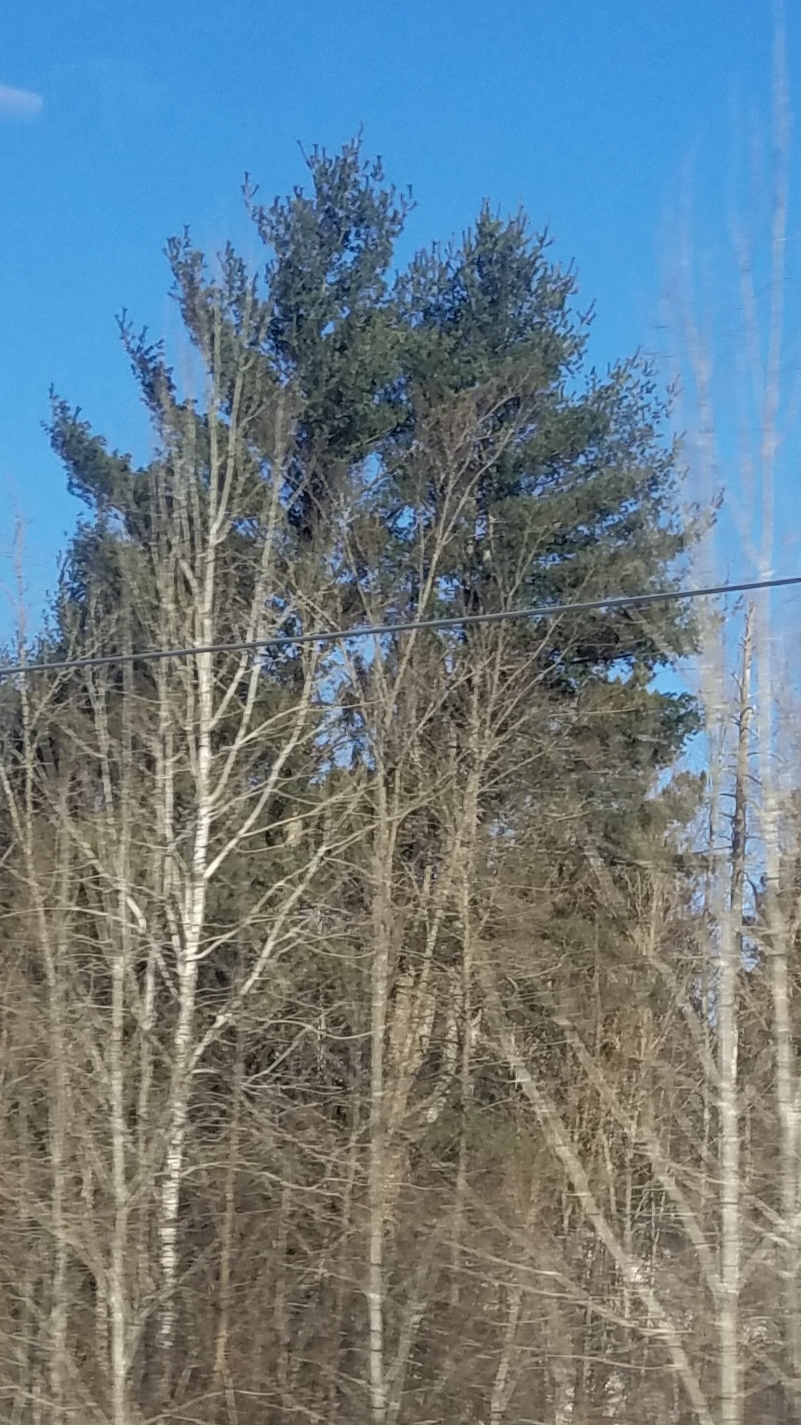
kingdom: Plantae
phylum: Tracheophyta
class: Pinopsida
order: Pinales
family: Pinaceae
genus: Pinus
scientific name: Pinus strobus
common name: Weymouth pine
